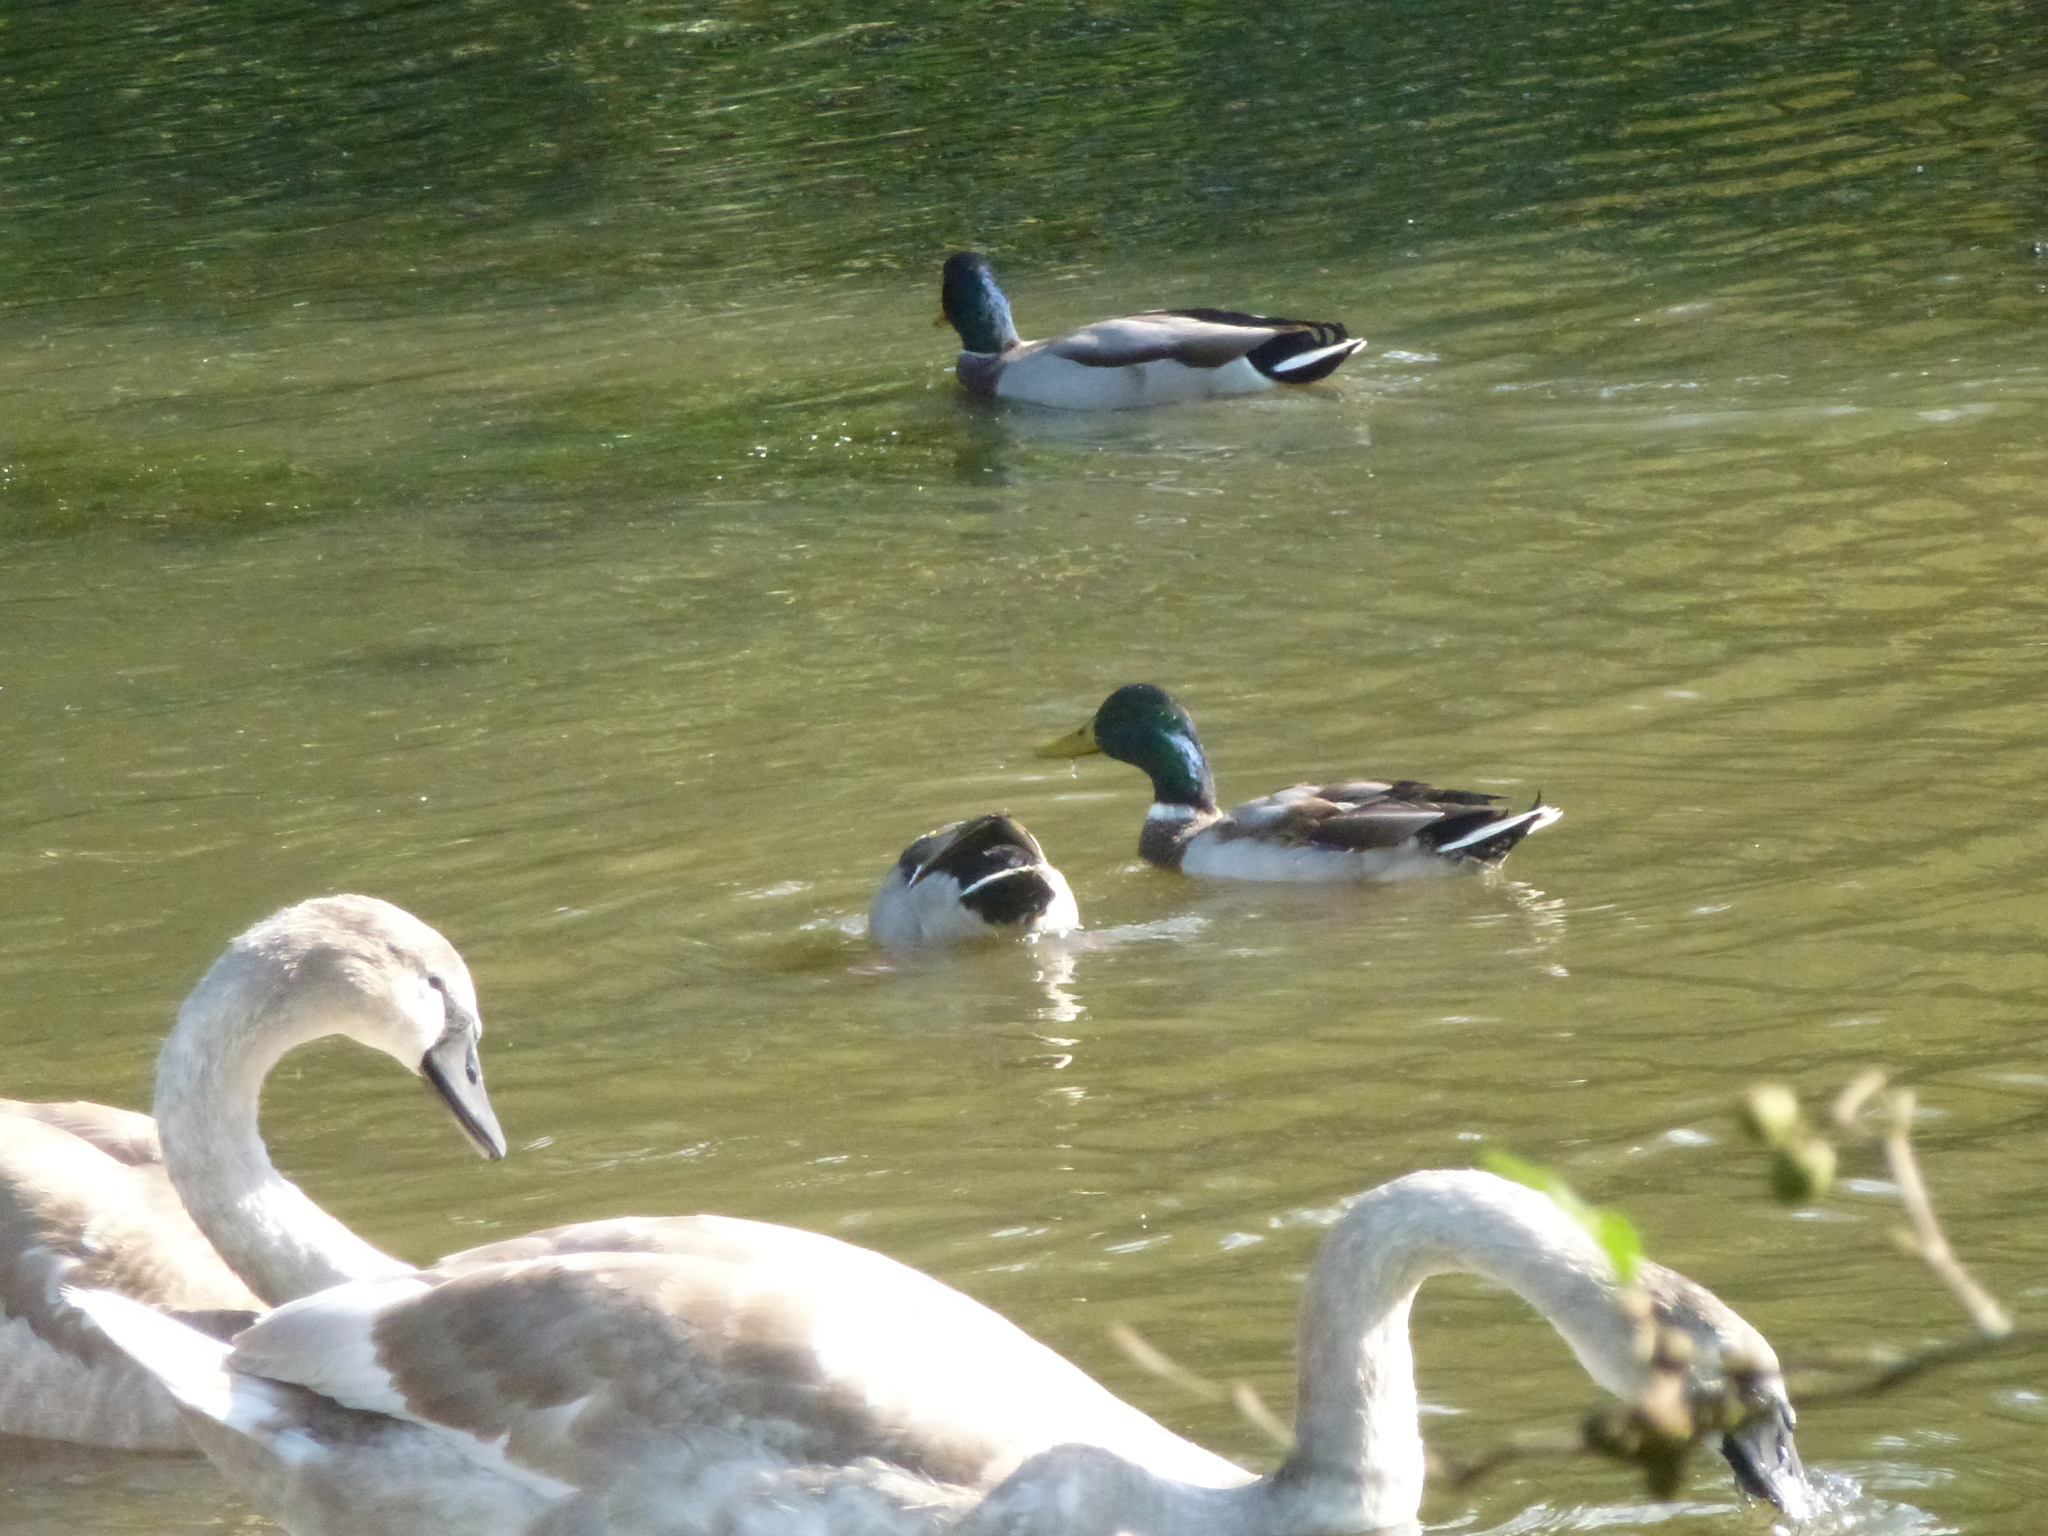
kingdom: Animalia
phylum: Chordata
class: Aves
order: Anseriformes
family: Anatidae
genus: Anas
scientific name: Anas platyrhynchos
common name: Mallard
